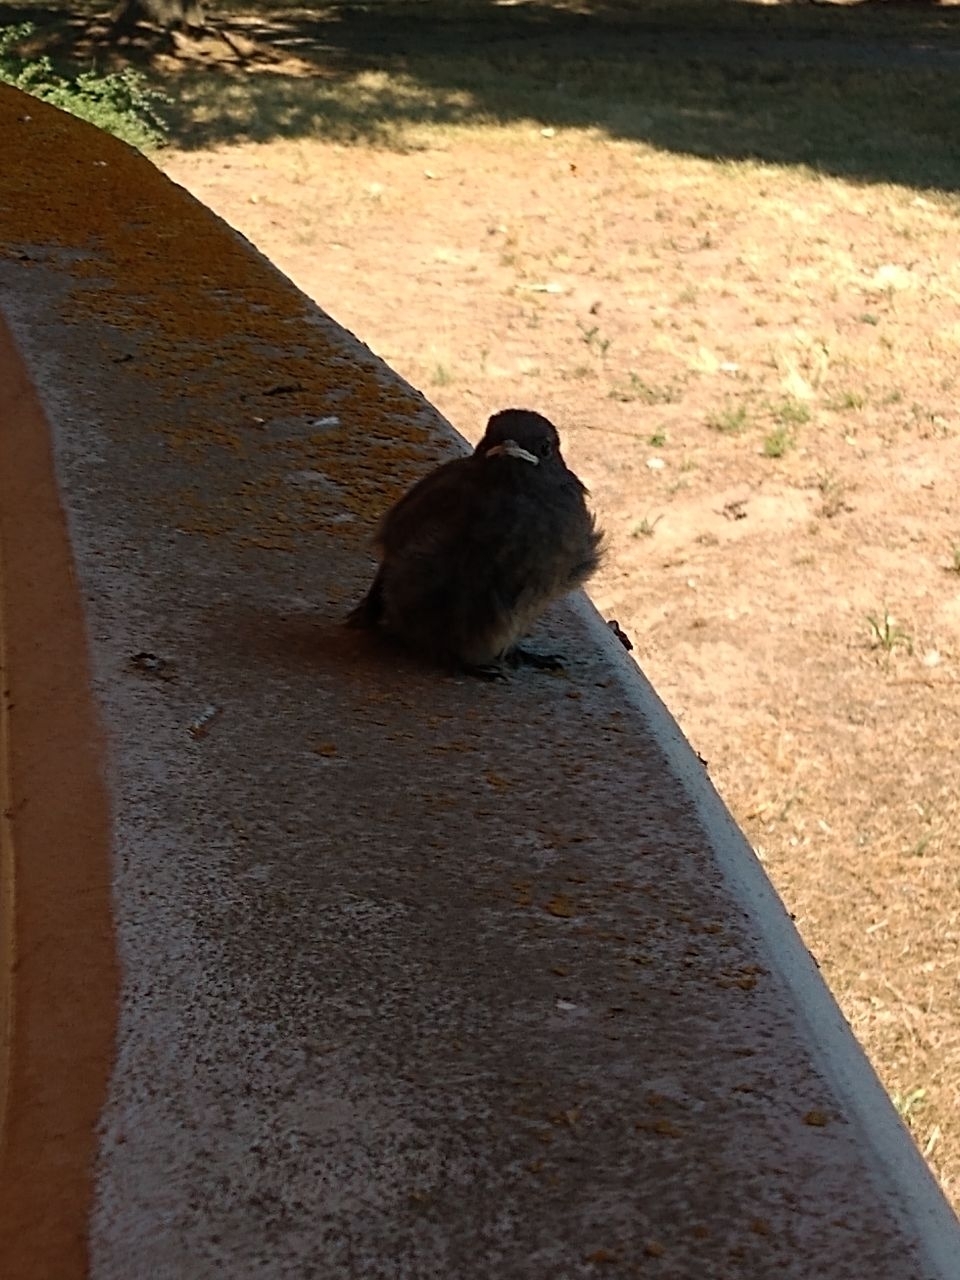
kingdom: Animalia
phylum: Chordata
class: Aves
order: Passeriformes
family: Muscicapidae
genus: Phoenicurus
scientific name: Phoenicurus ochruros
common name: Black redstart
